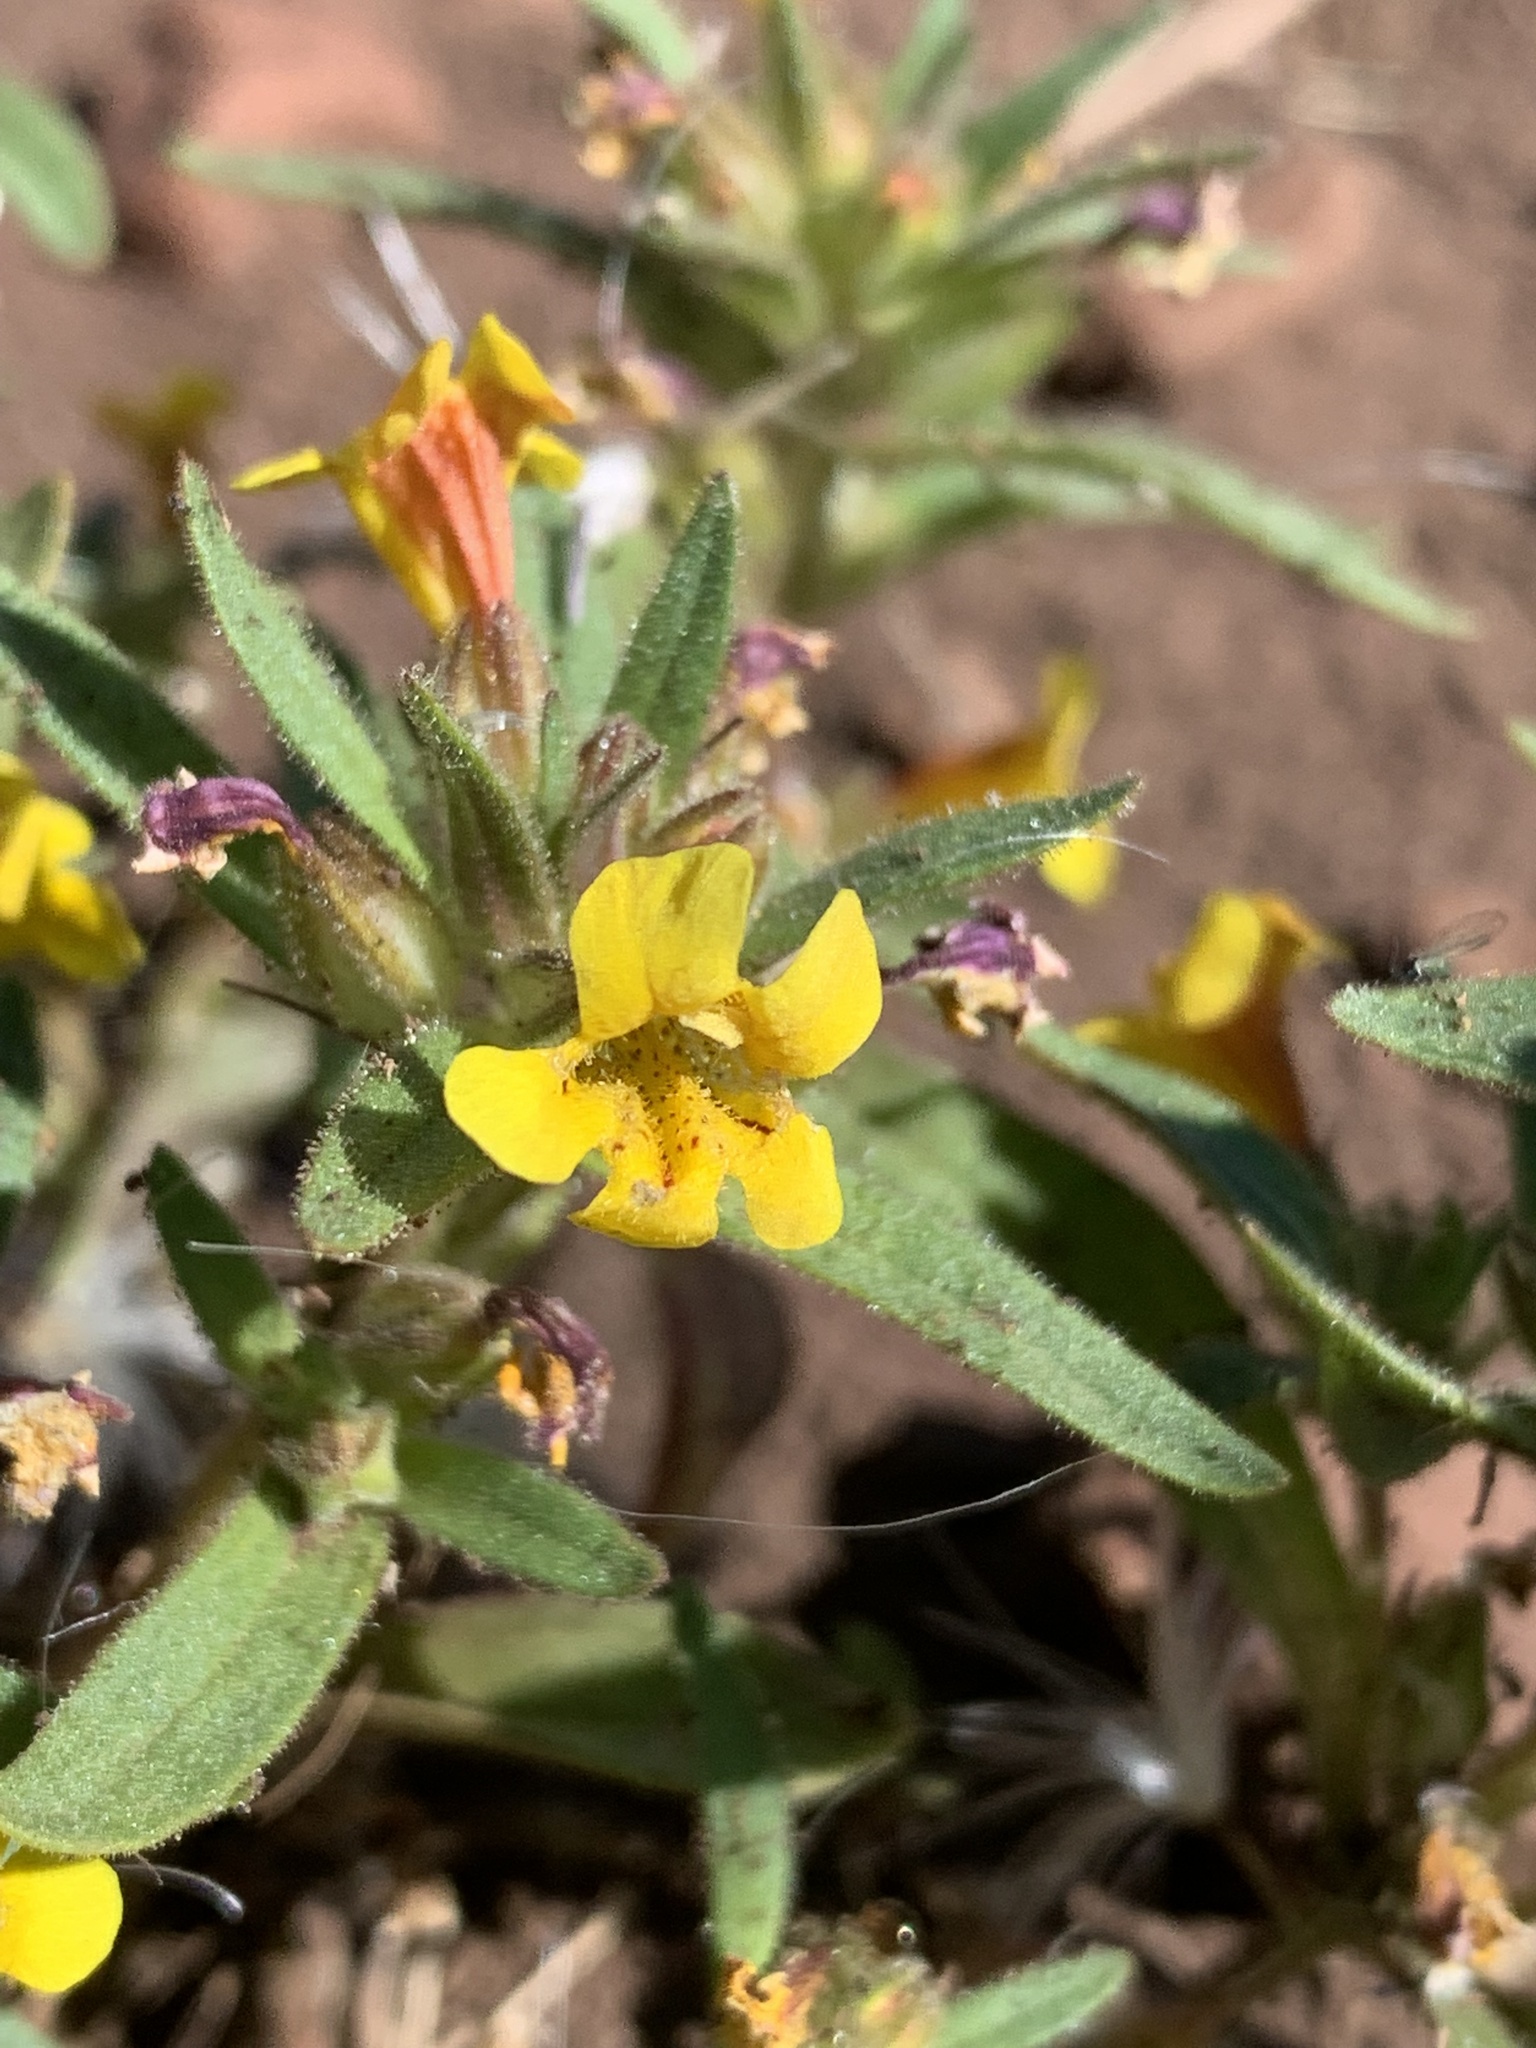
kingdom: Plantae
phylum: Tracheophyta
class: Magnoliopsida
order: Lamiales
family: Phrymaceae
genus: Diplacus
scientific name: Diplacus mephiticus
